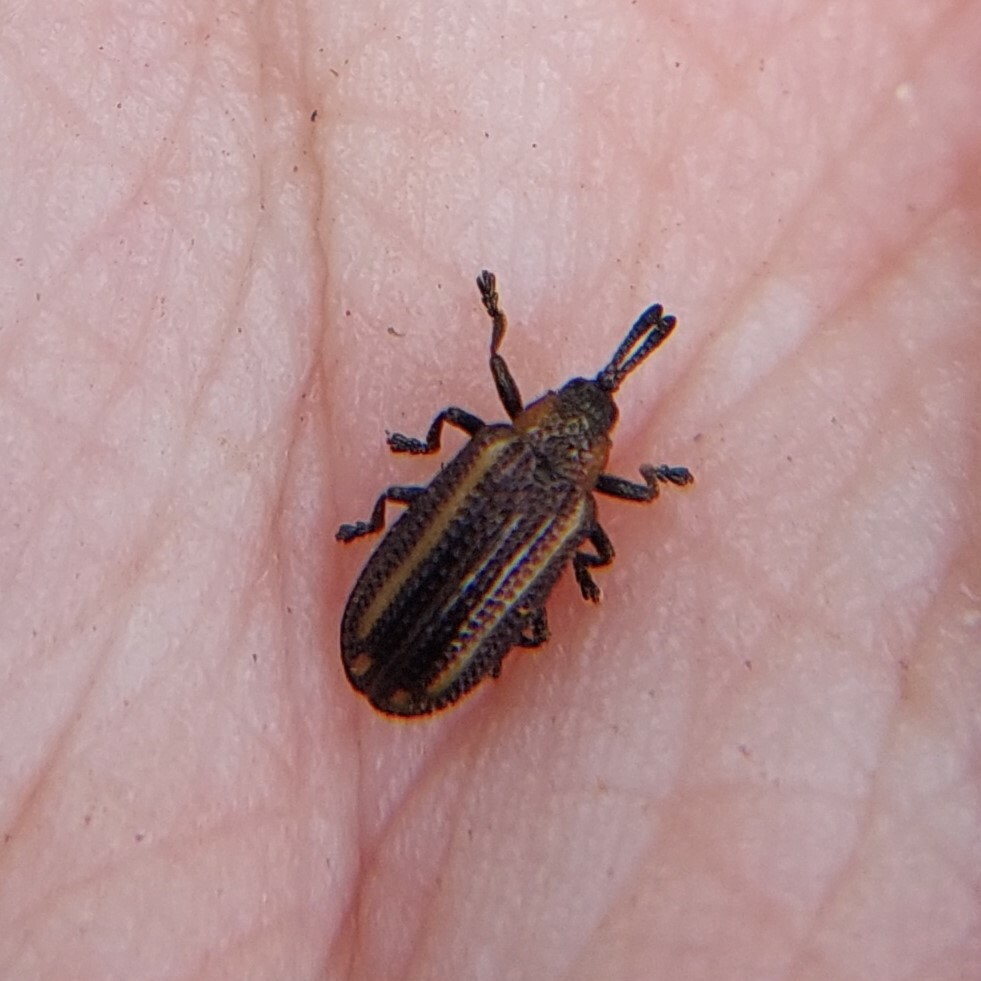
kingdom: Animalia
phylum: Arthropoda
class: Insecta
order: Coleoptera
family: Chrysomelidae
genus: Microrhopala
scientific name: Microrhopala xerene
